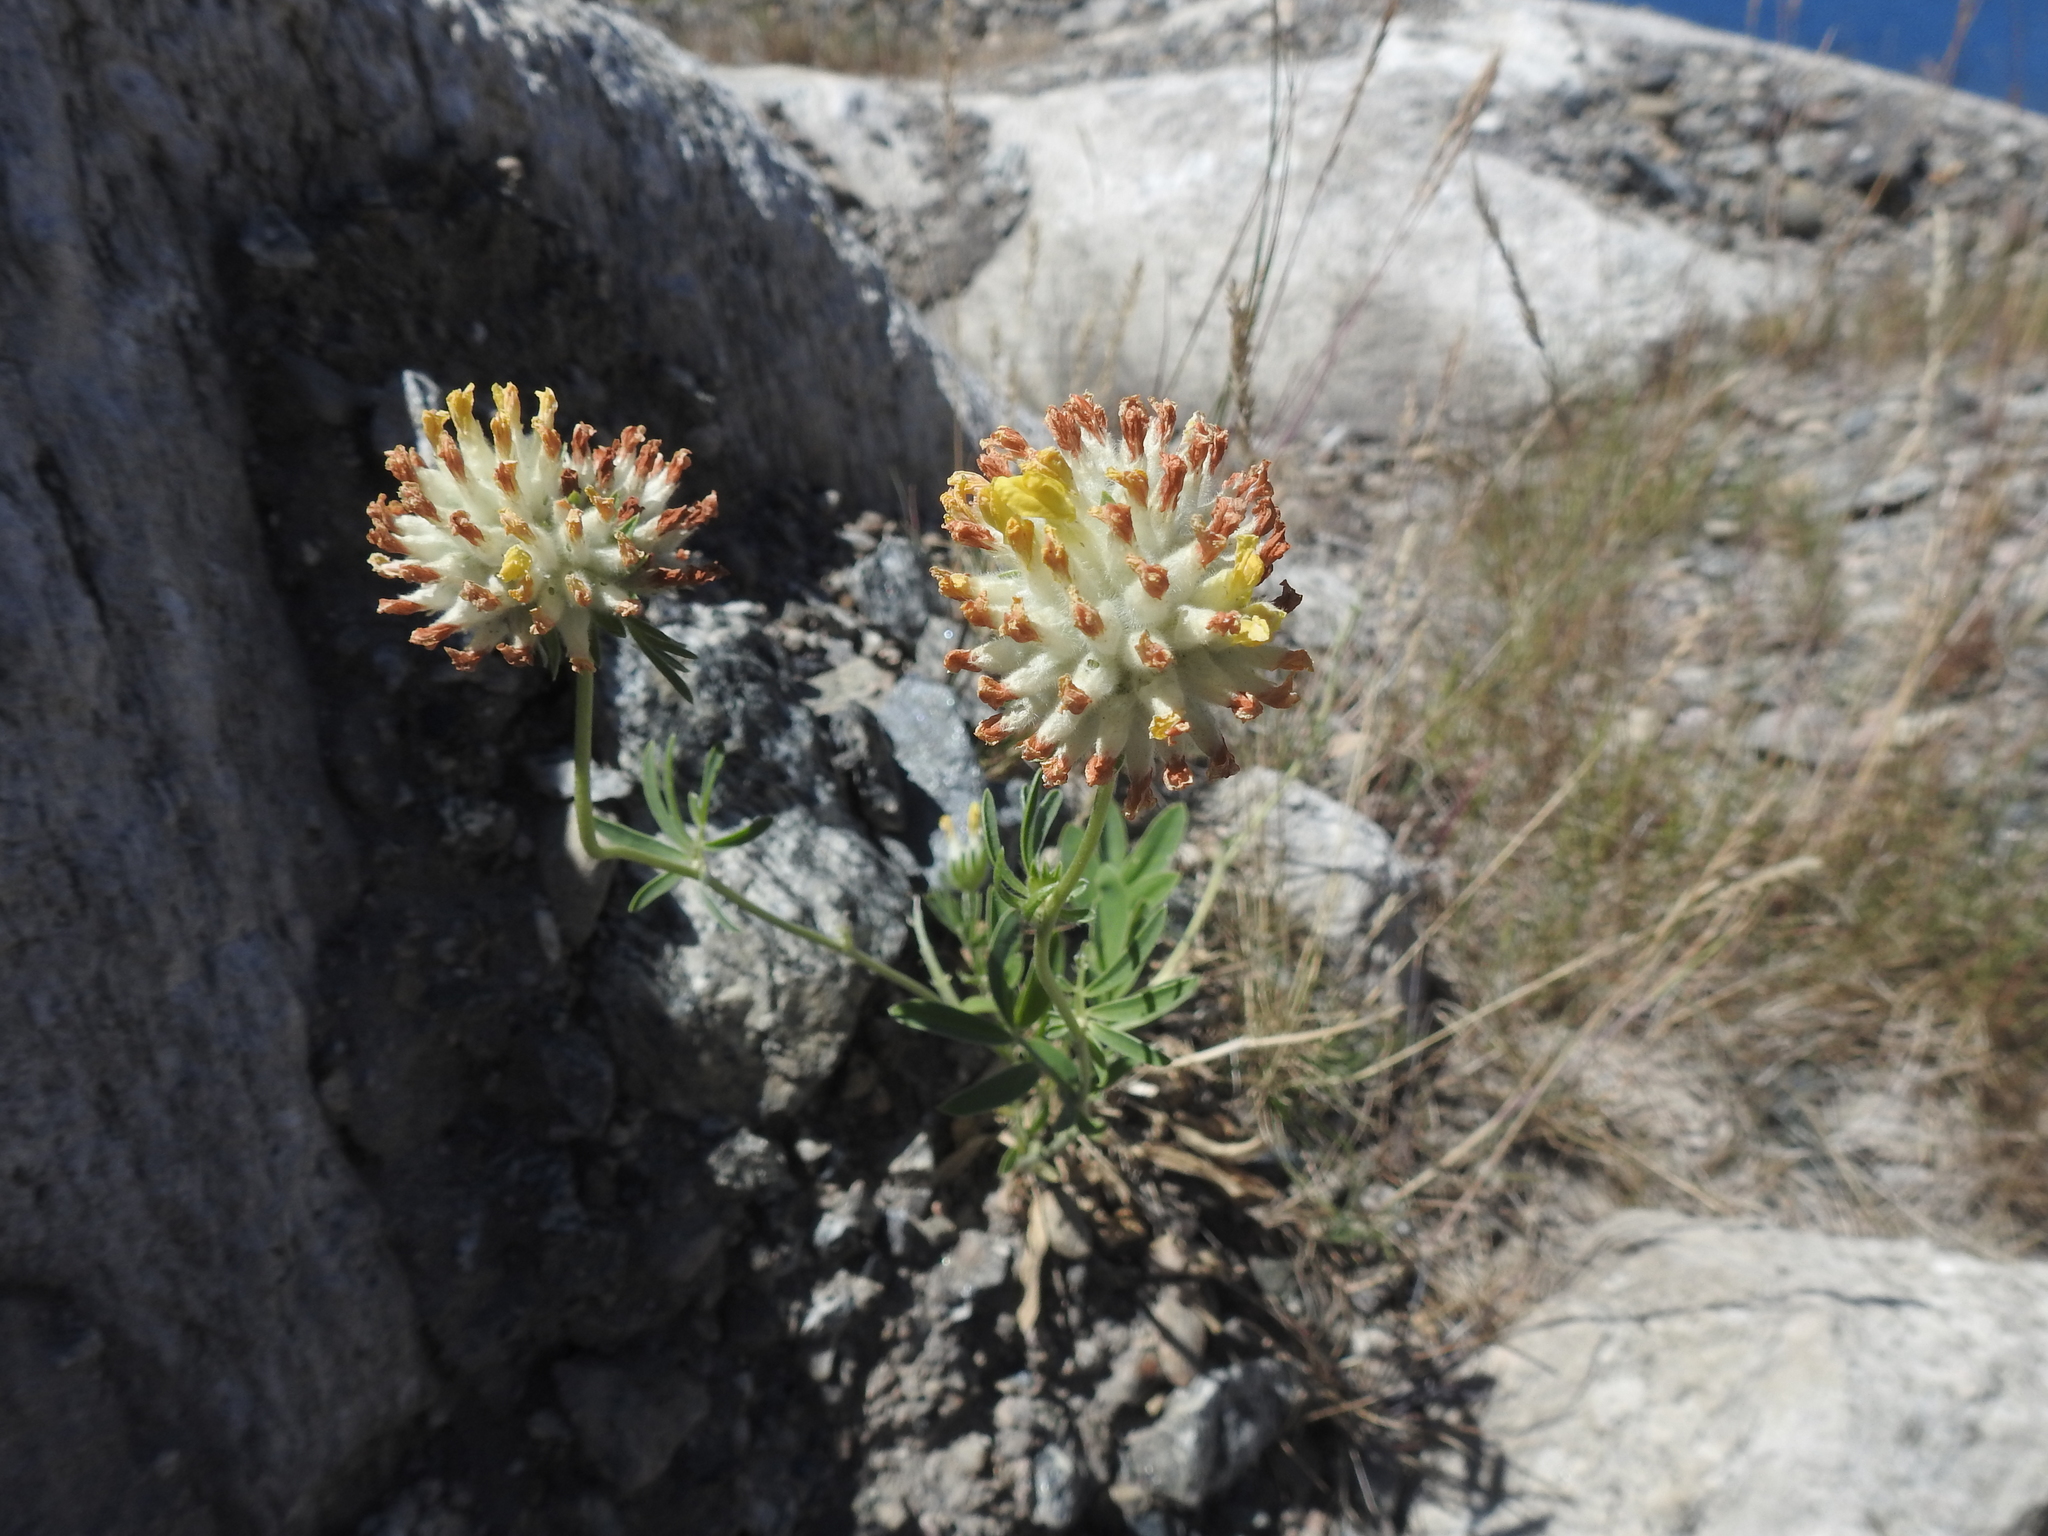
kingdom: Plantae
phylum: Tracheophyta
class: Magnoliopsida
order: Fabales
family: Fabaceae
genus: Anthyllis
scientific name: Anthyllis vulneraria
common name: Kidney vetch
